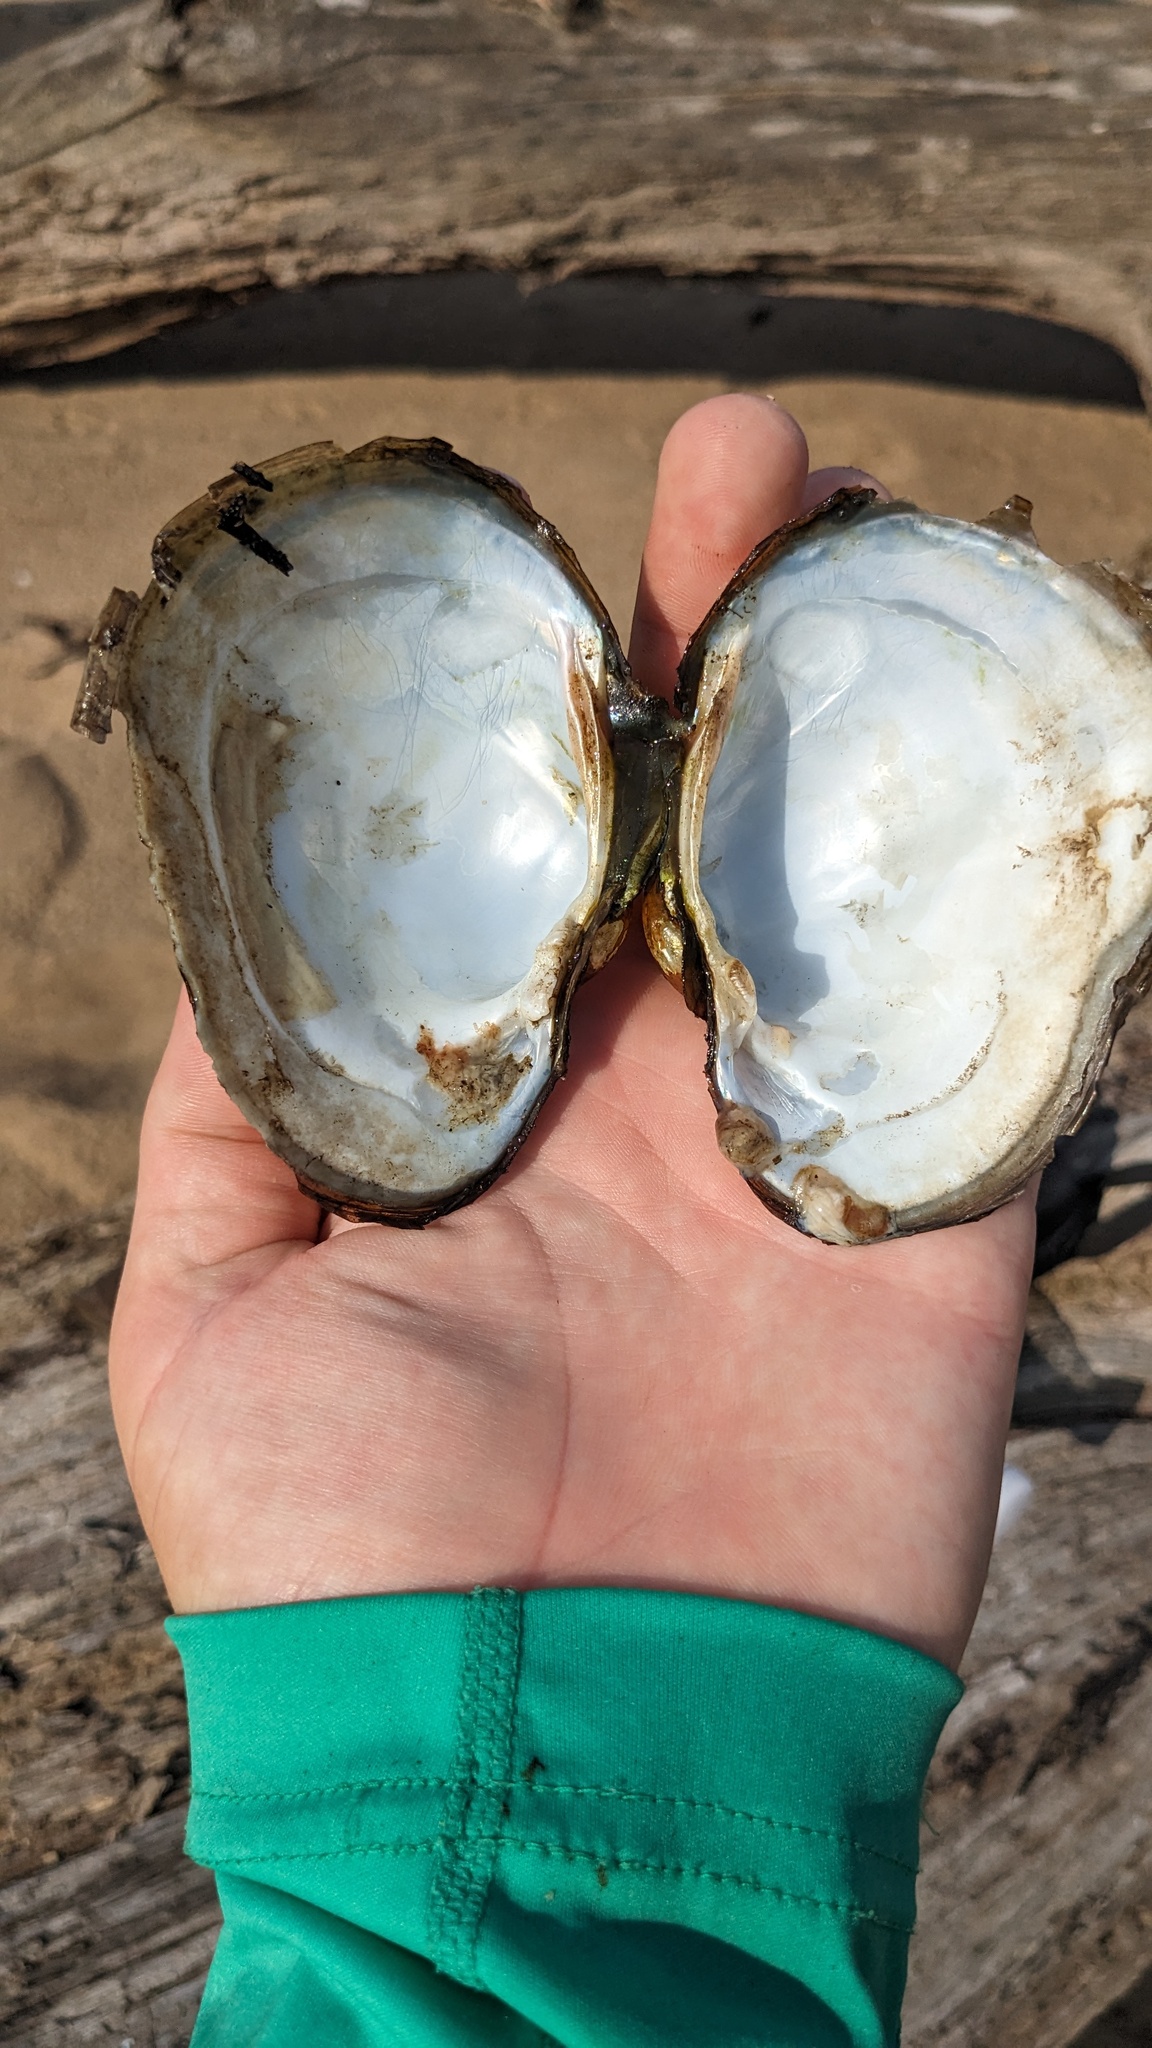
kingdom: Animalia
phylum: Mollusca
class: Bivalvia
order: Unionida
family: Unionidae
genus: Lampsilis
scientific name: Lampsilis cardium
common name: Plain pocketbook
